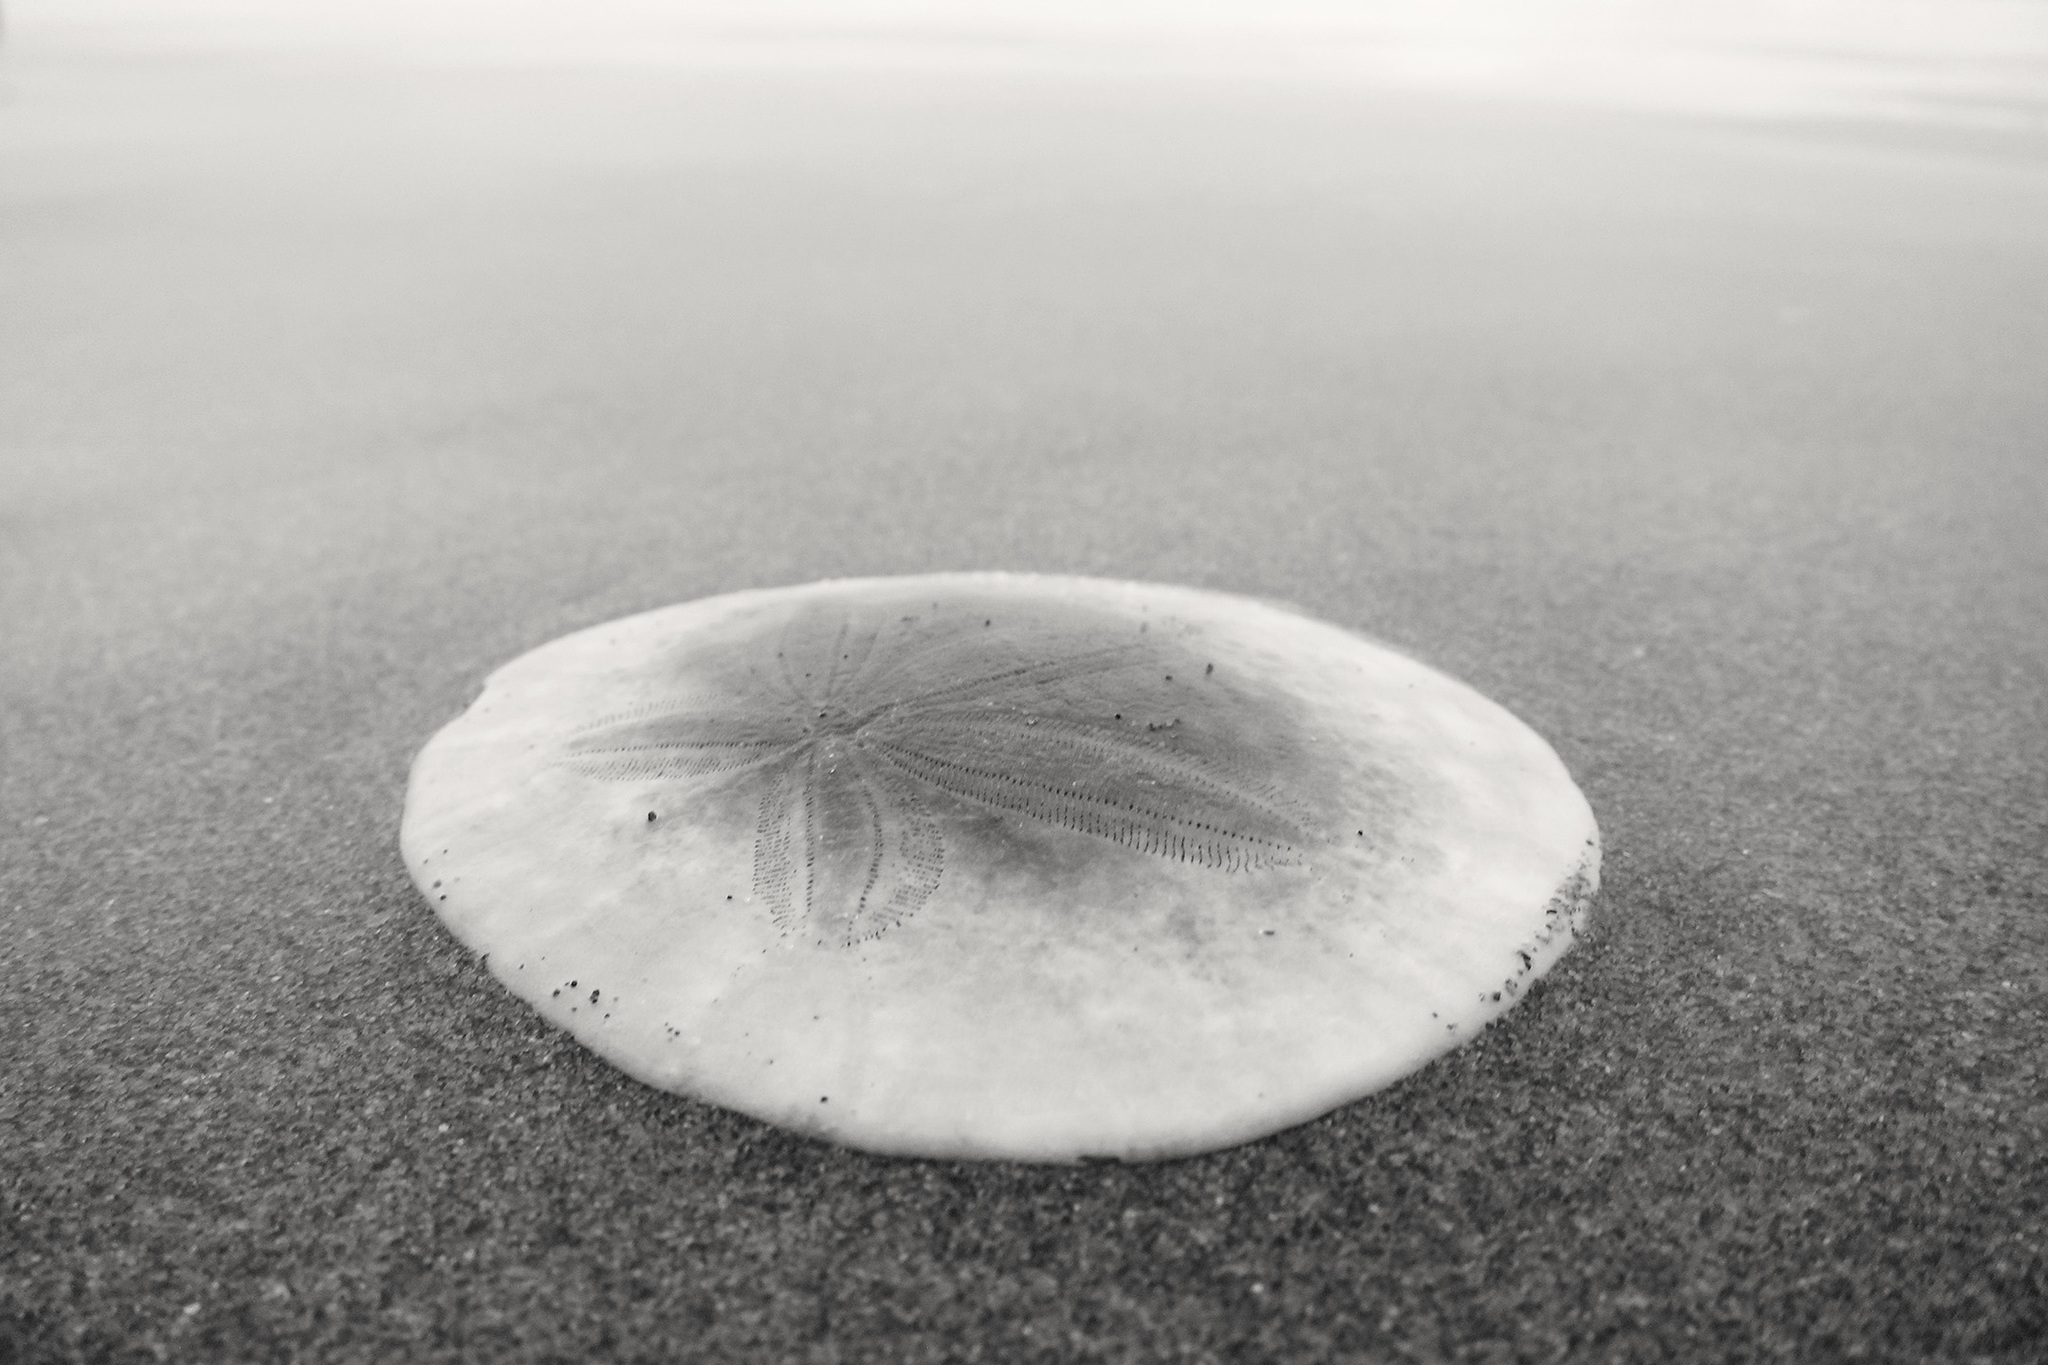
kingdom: Animalia
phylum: Echinodermata
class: Echinoidea
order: Echinolampadacea
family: Dendrasteridae
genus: Dendraster
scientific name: Dendraster excentricus
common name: Eccentric sand dollar sea urchin
